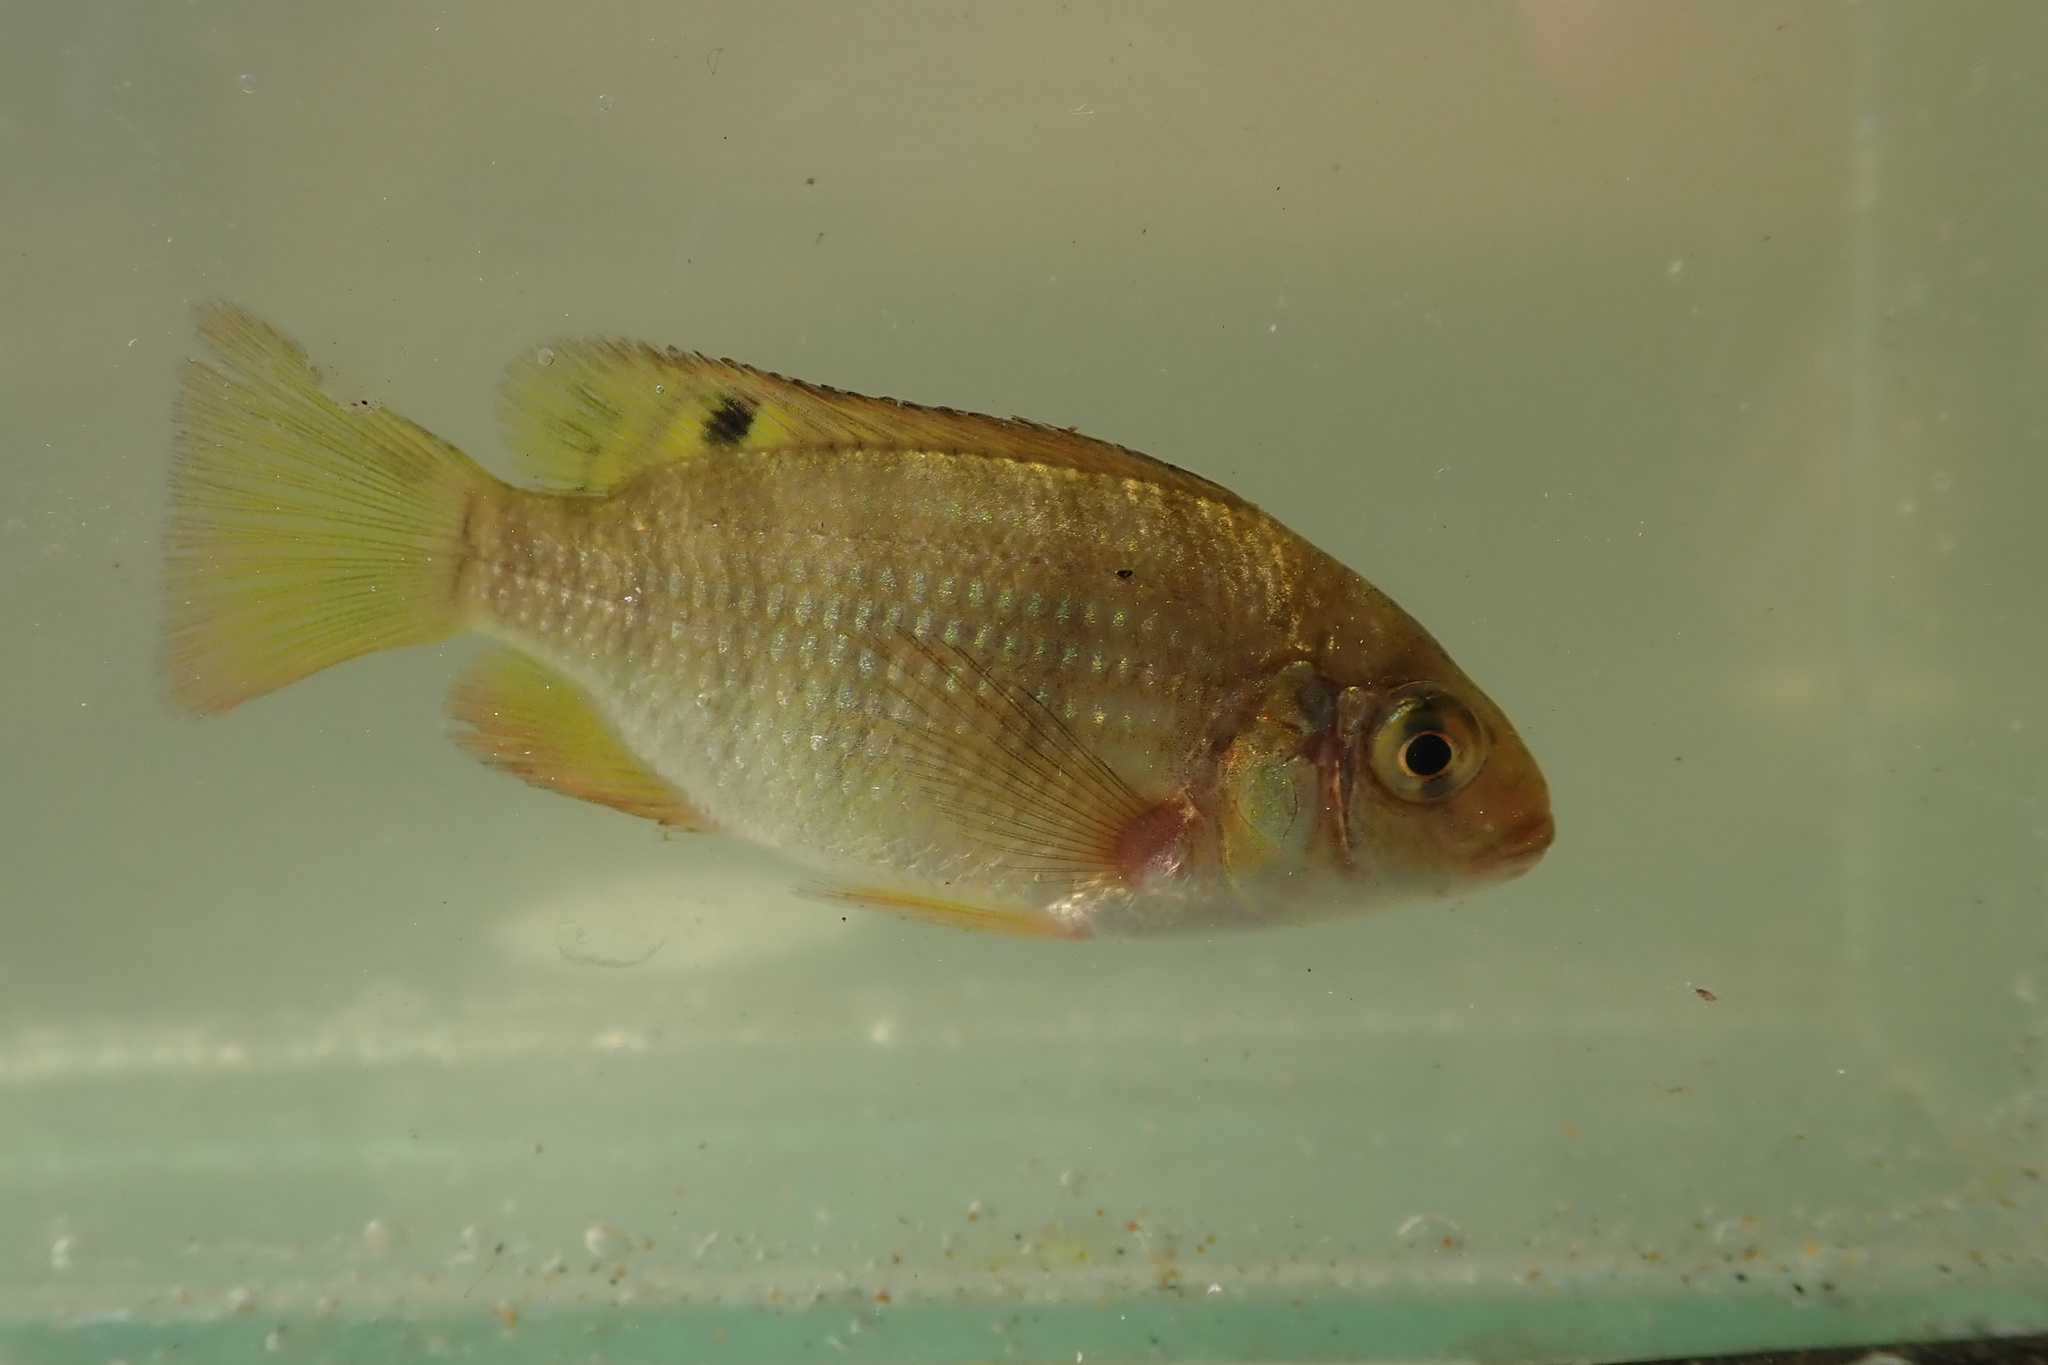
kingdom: Animalia
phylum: Chordata
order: Perciformes
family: Cichlidae
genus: Coptodon
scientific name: Coptodon rendalli
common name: Redbreast tilapia
